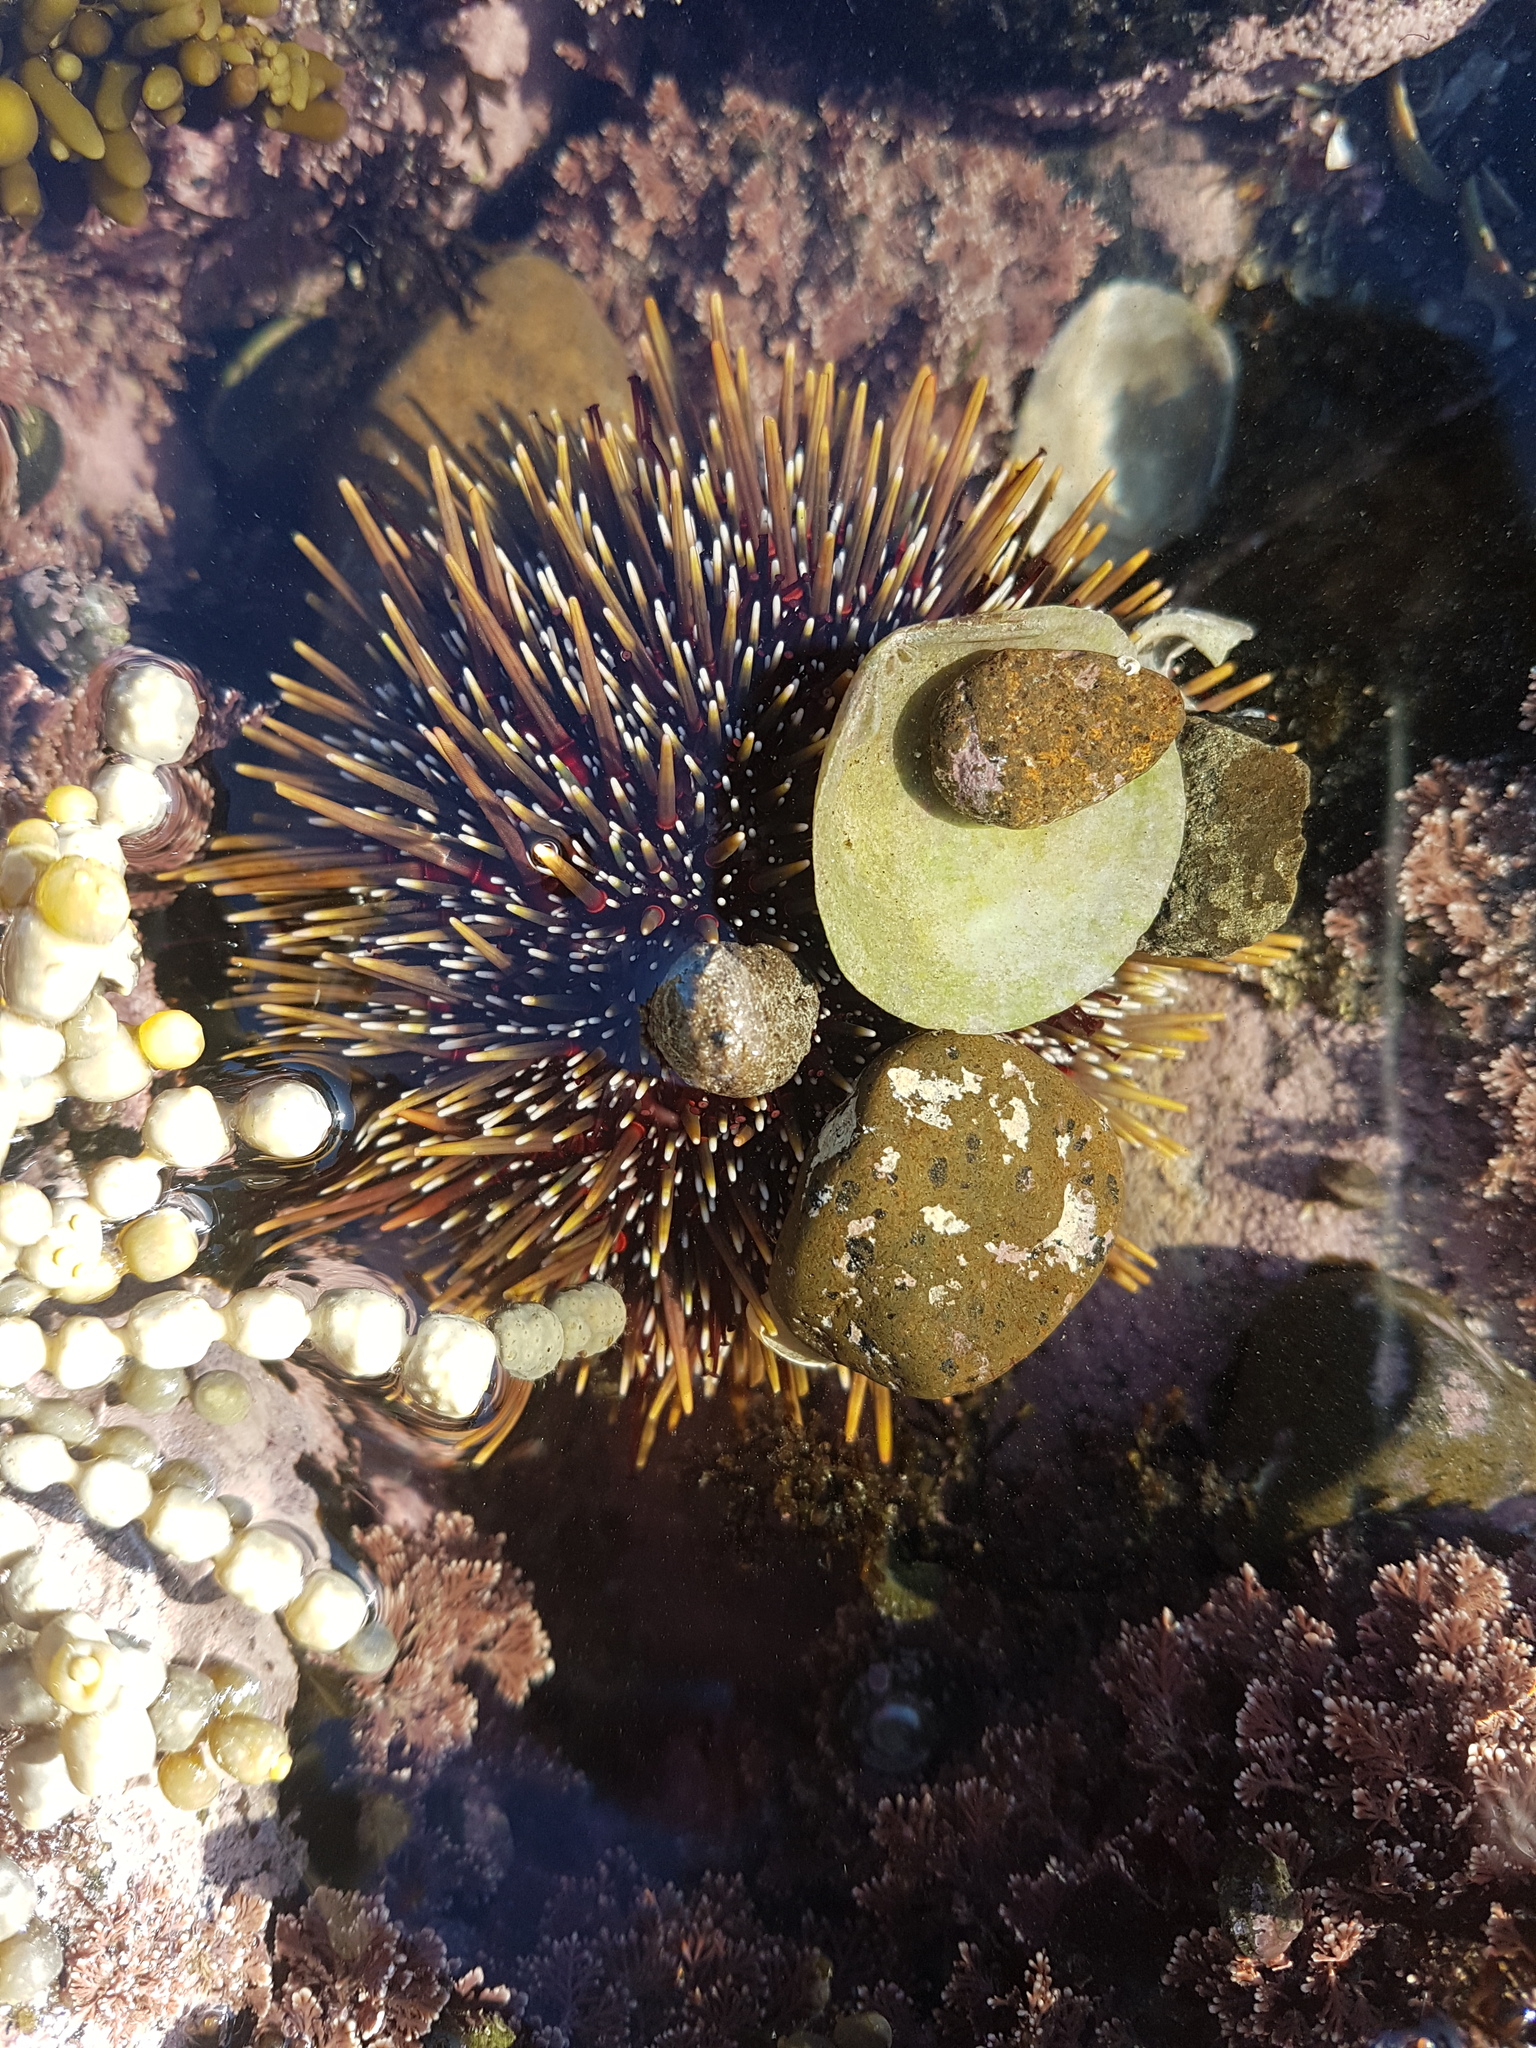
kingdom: Animalia
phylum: Echinodermata
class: Echinoidea
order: Camarodonta
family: Echinometridae
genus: Evechinus
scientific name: Evechinus chloroticus
